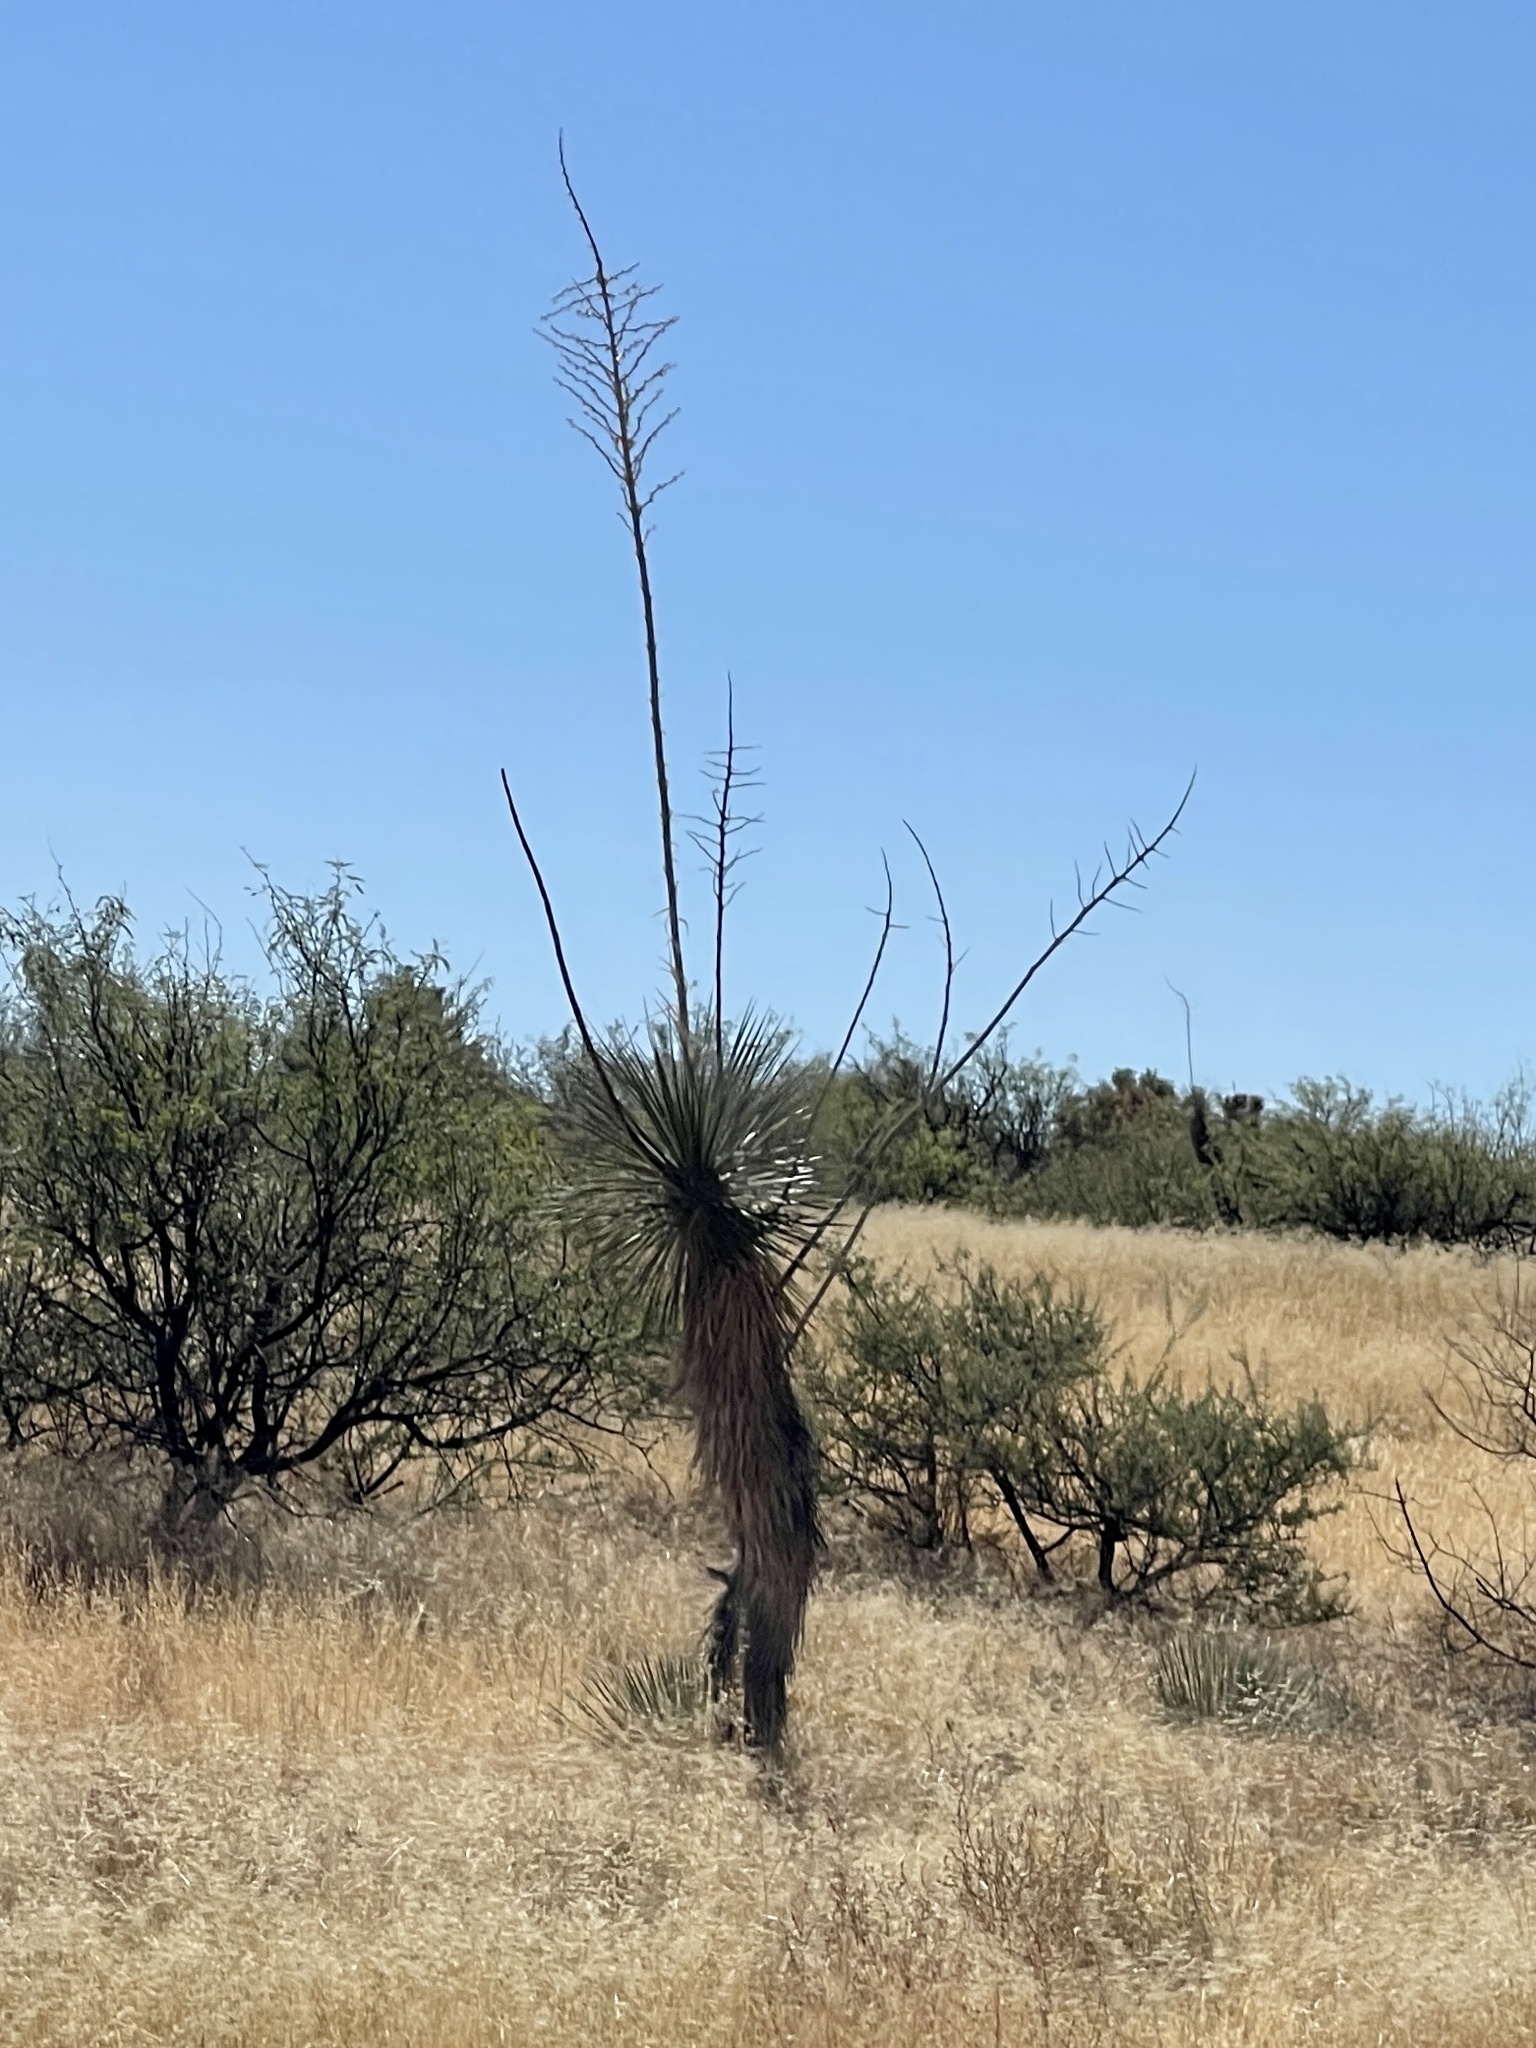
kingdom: Plantae
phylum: Tracheophyta
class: Liliopsida
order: Asparagales
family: Asparagaceae
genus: Yucca
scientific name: Yucca elata
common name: Palmella
